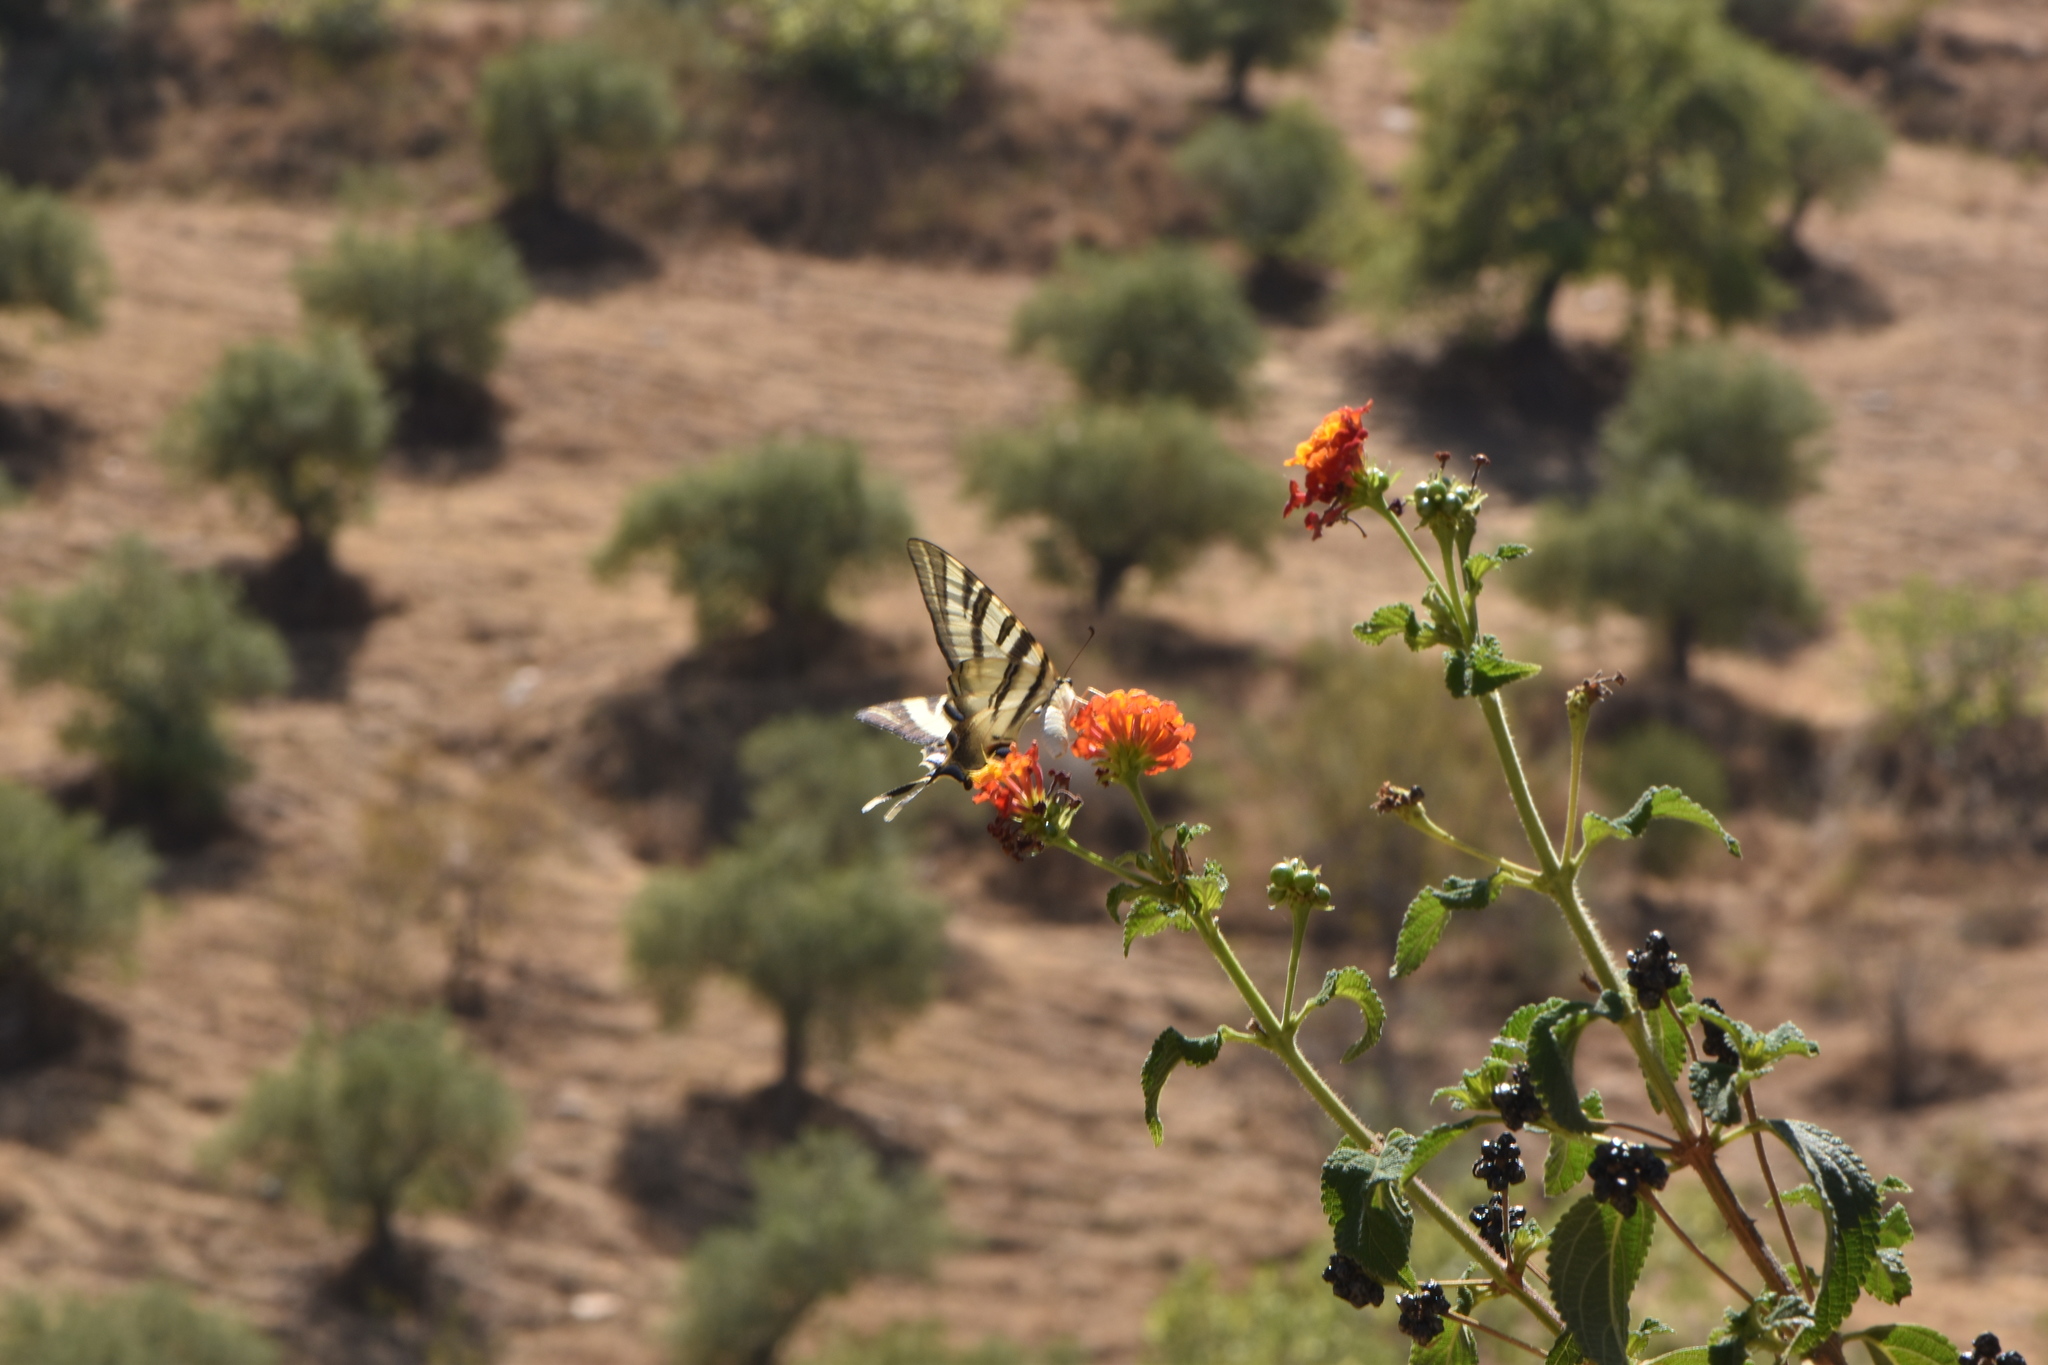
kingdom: Animalia
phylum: Arthropoda
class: Insecta
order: Lepidoptera
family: Papilionidae
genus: Iphiclides
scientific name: Iphiclides feisthamelii
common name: Iberian scarce swallowtail
